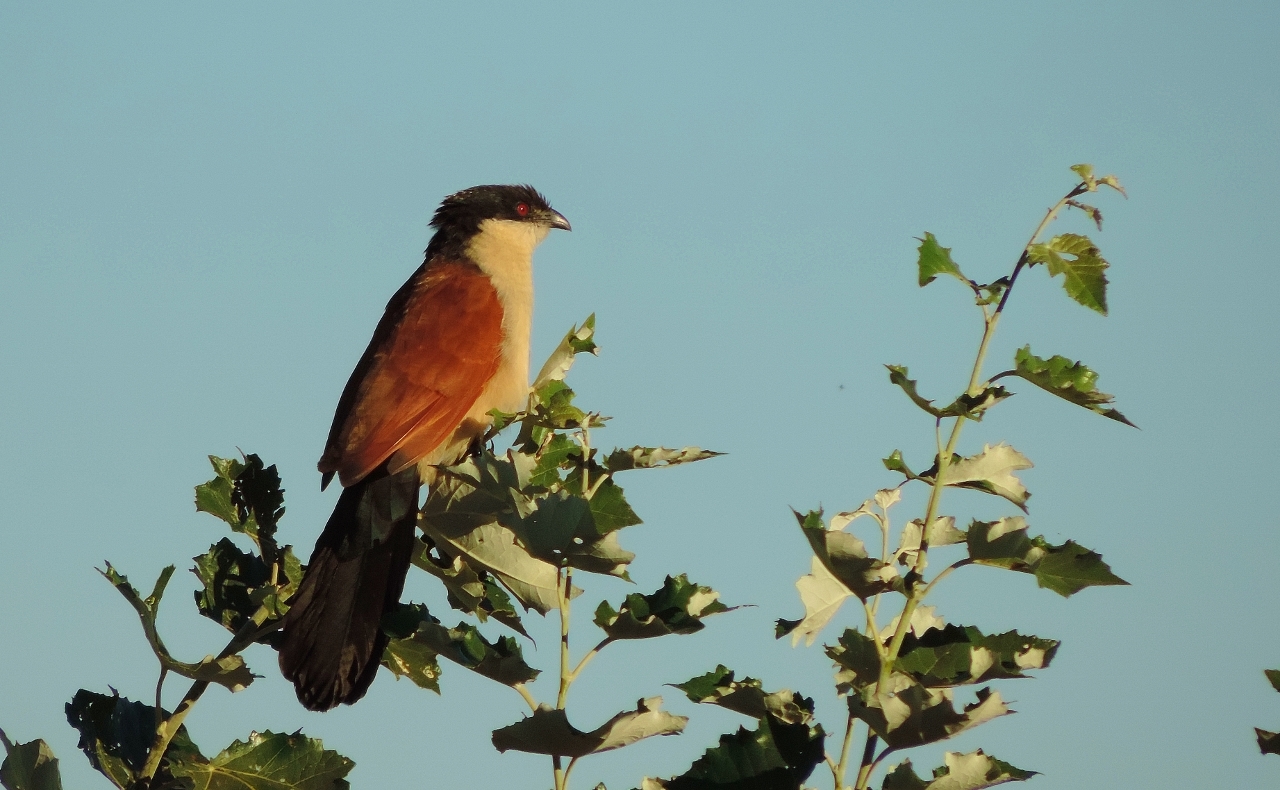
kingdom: Animalia
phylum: Chordata
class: Aves
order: Cuculiformes
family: Cuculidae
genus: Centropus
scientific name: Centropus senegalensis
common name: Senegal coucal
